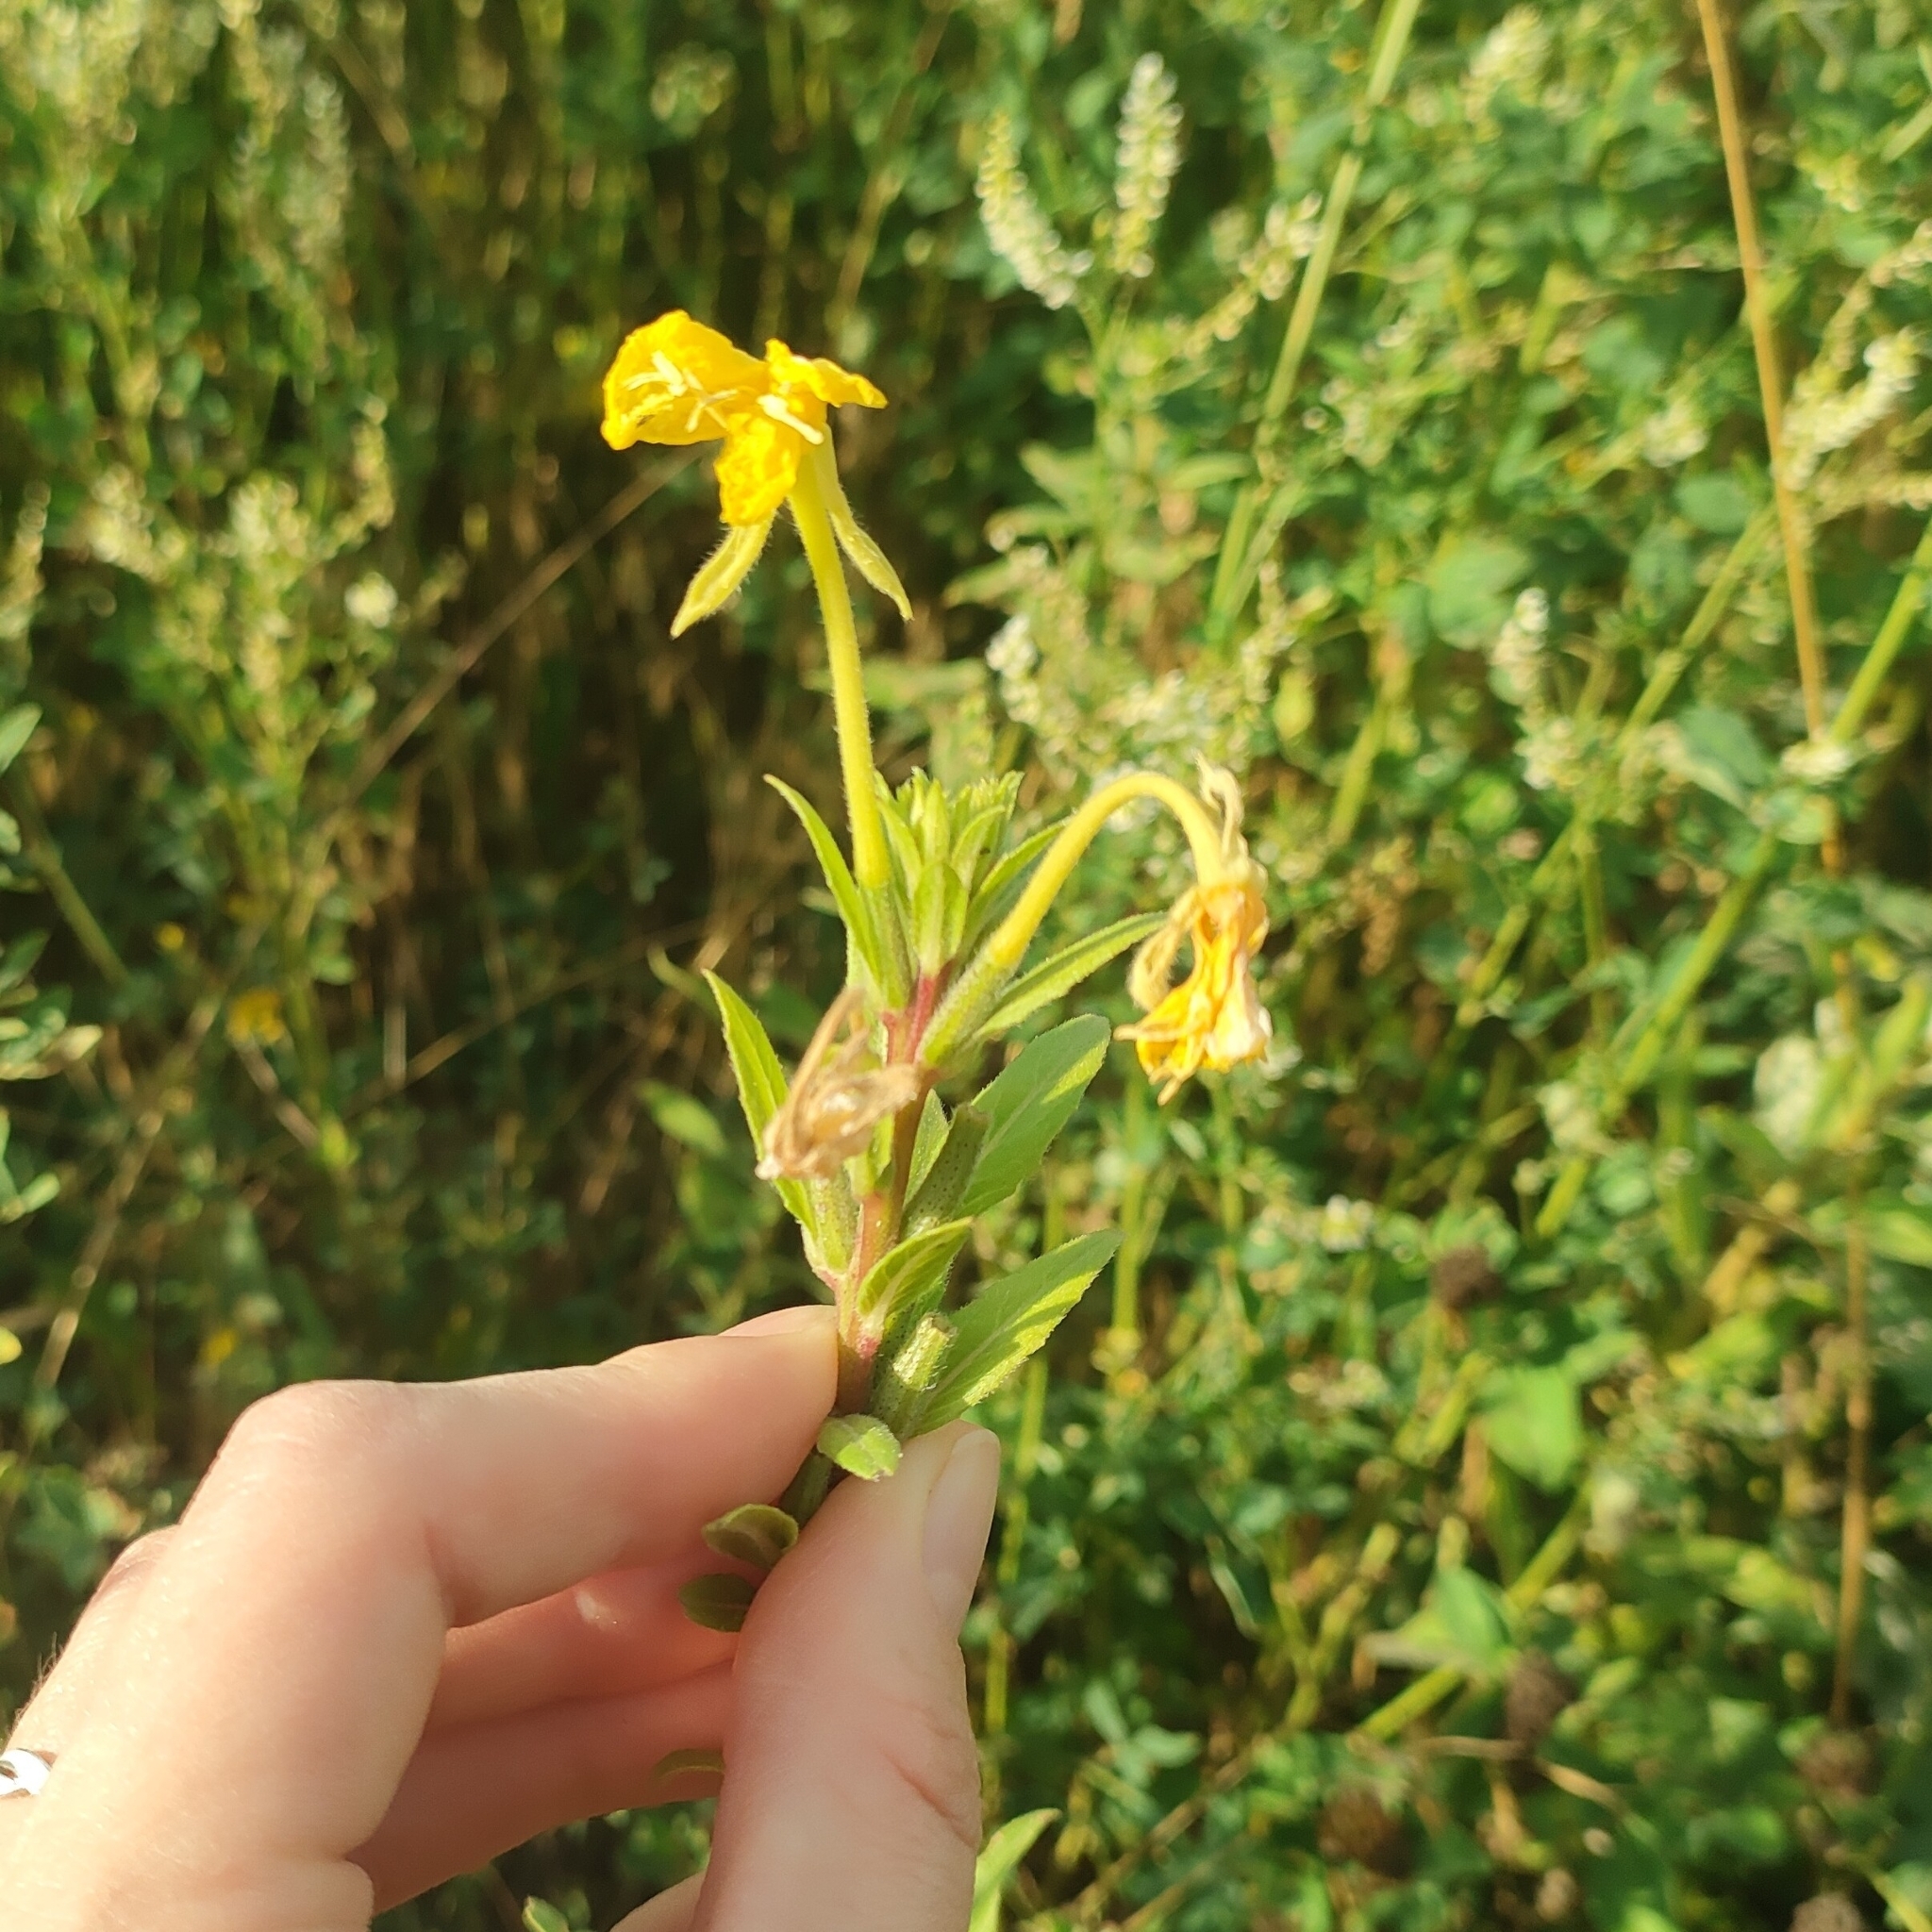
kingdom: Plantae
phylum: Tracheophyta
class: Magnoliopsida
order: Myrtales
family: Onagraceae
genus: Oenothera
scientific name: Oenothera rubricaulis
